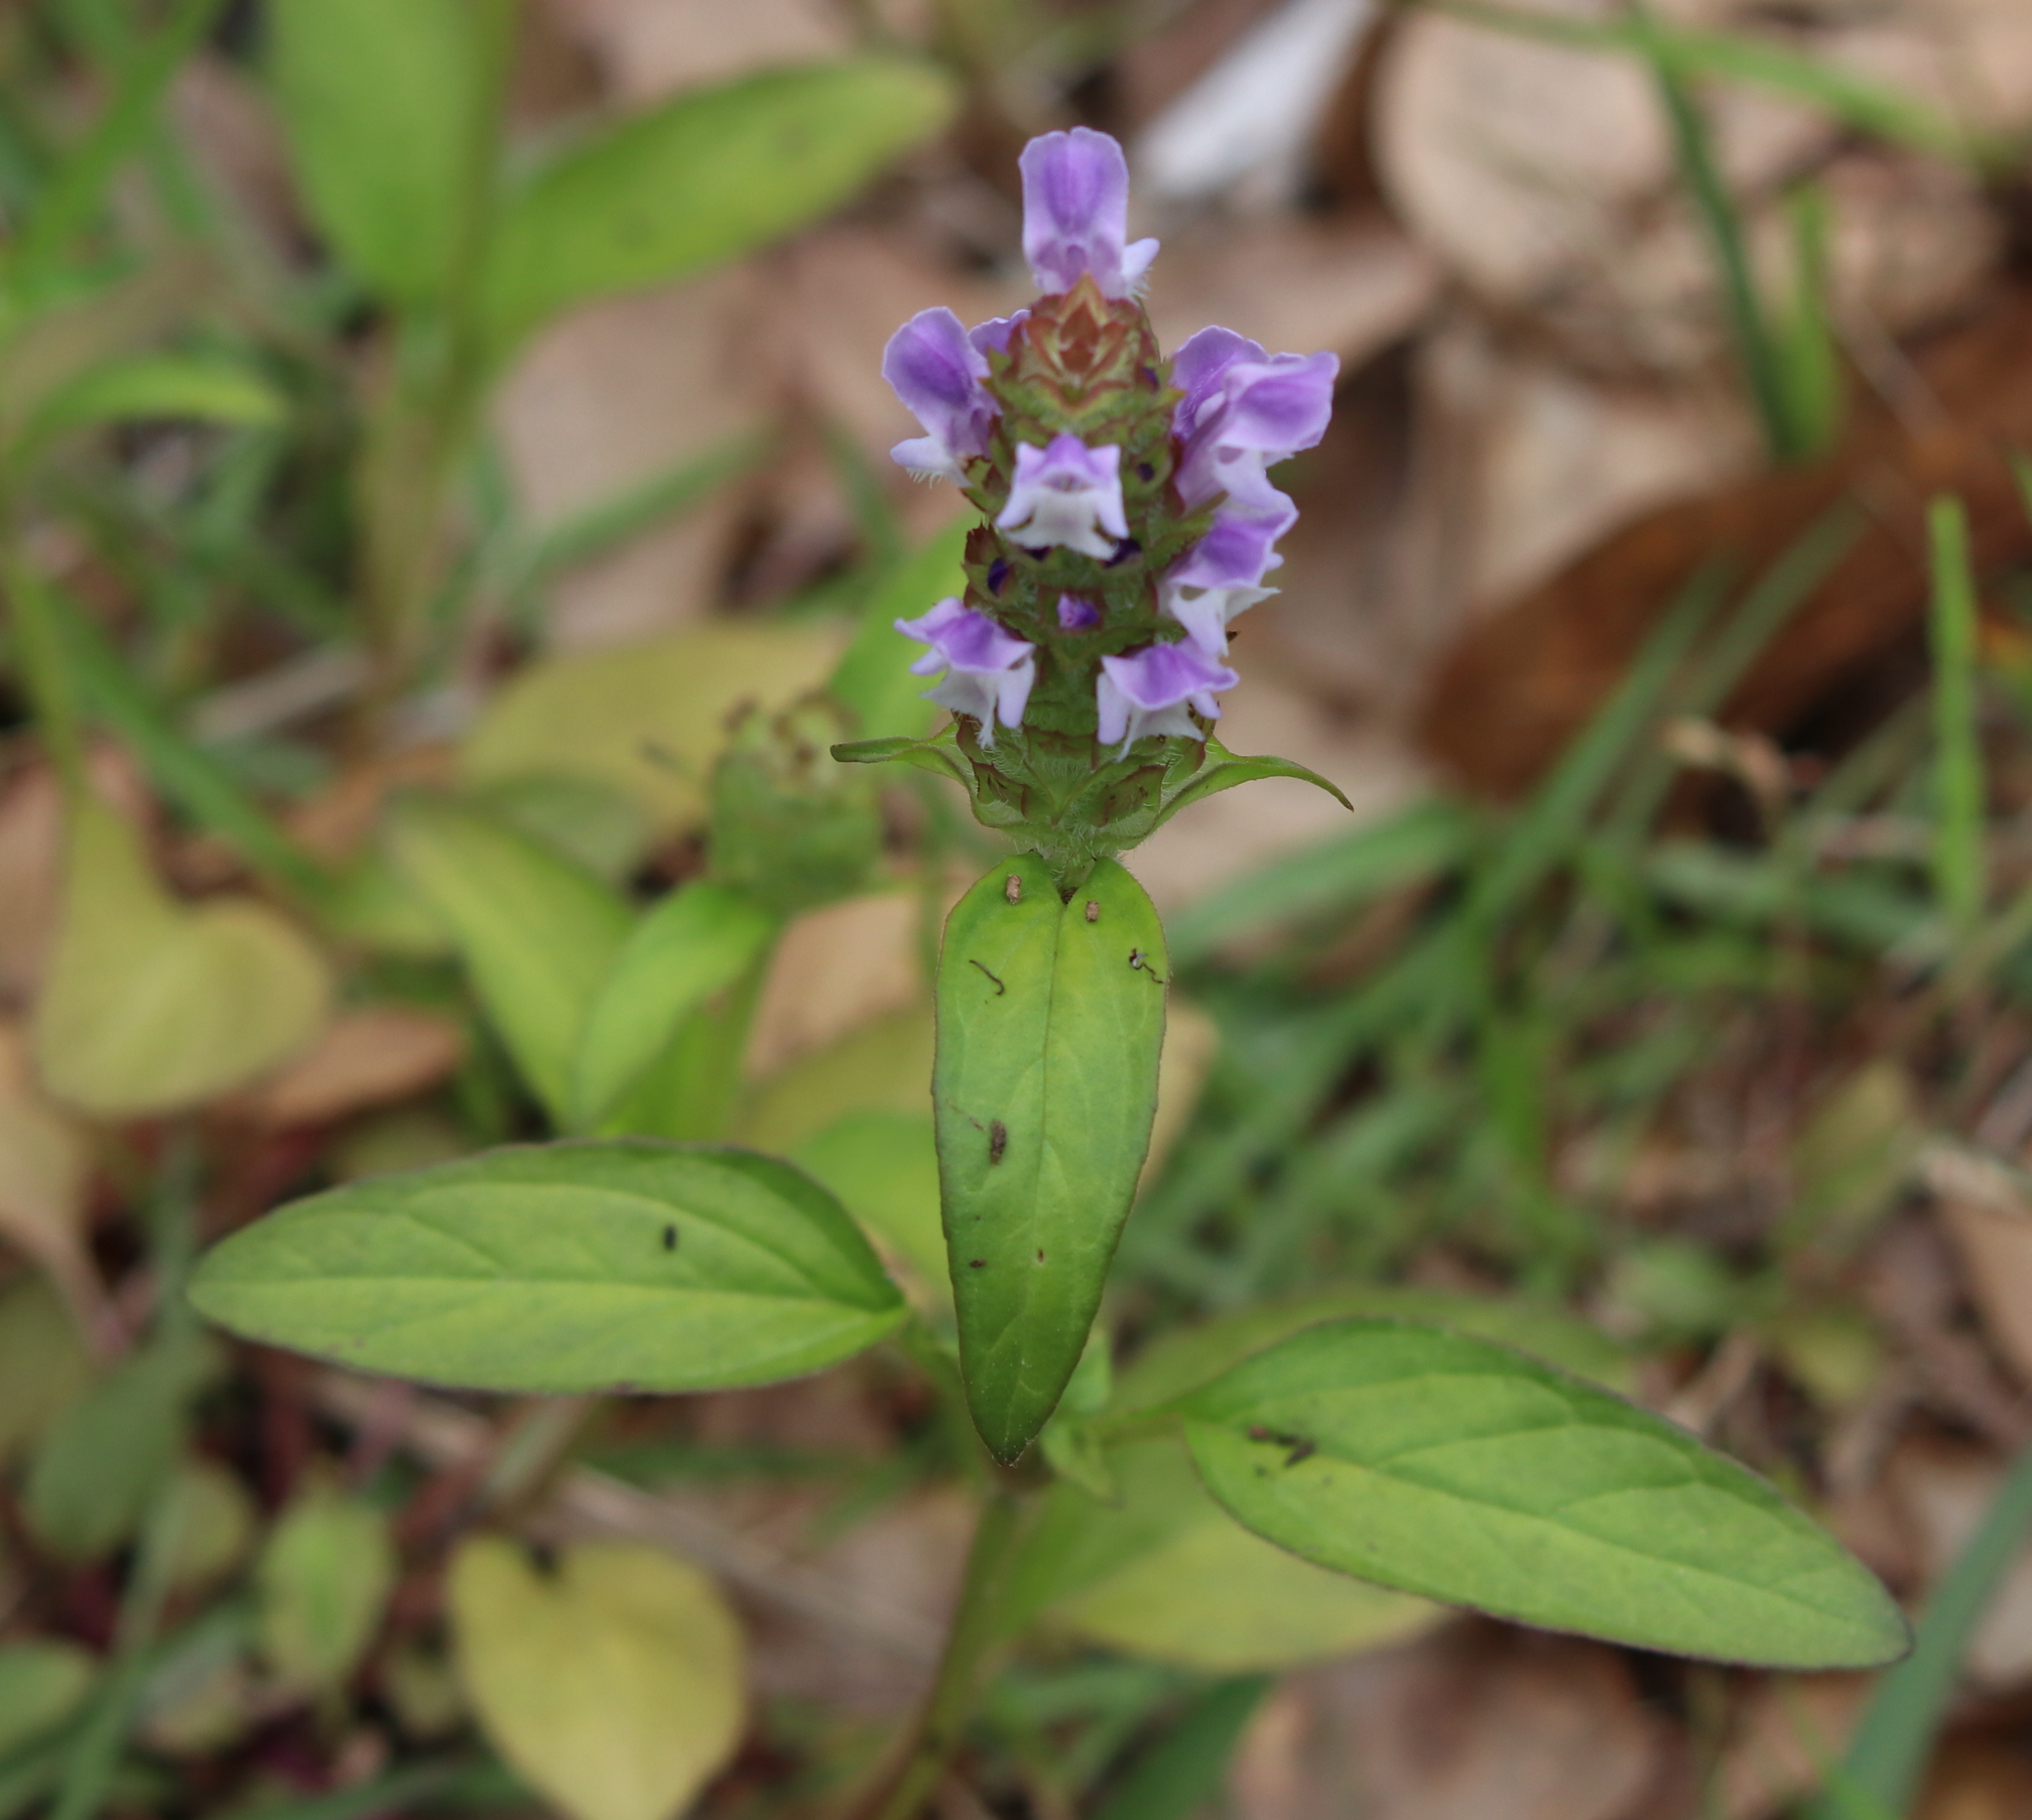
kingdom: Plantae
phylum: Tracheophyta
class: Magnoliopsida
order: Lamiales
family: Lamiaceae
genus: Prunella
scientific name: Prunella vulgaris
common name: Heal-all
